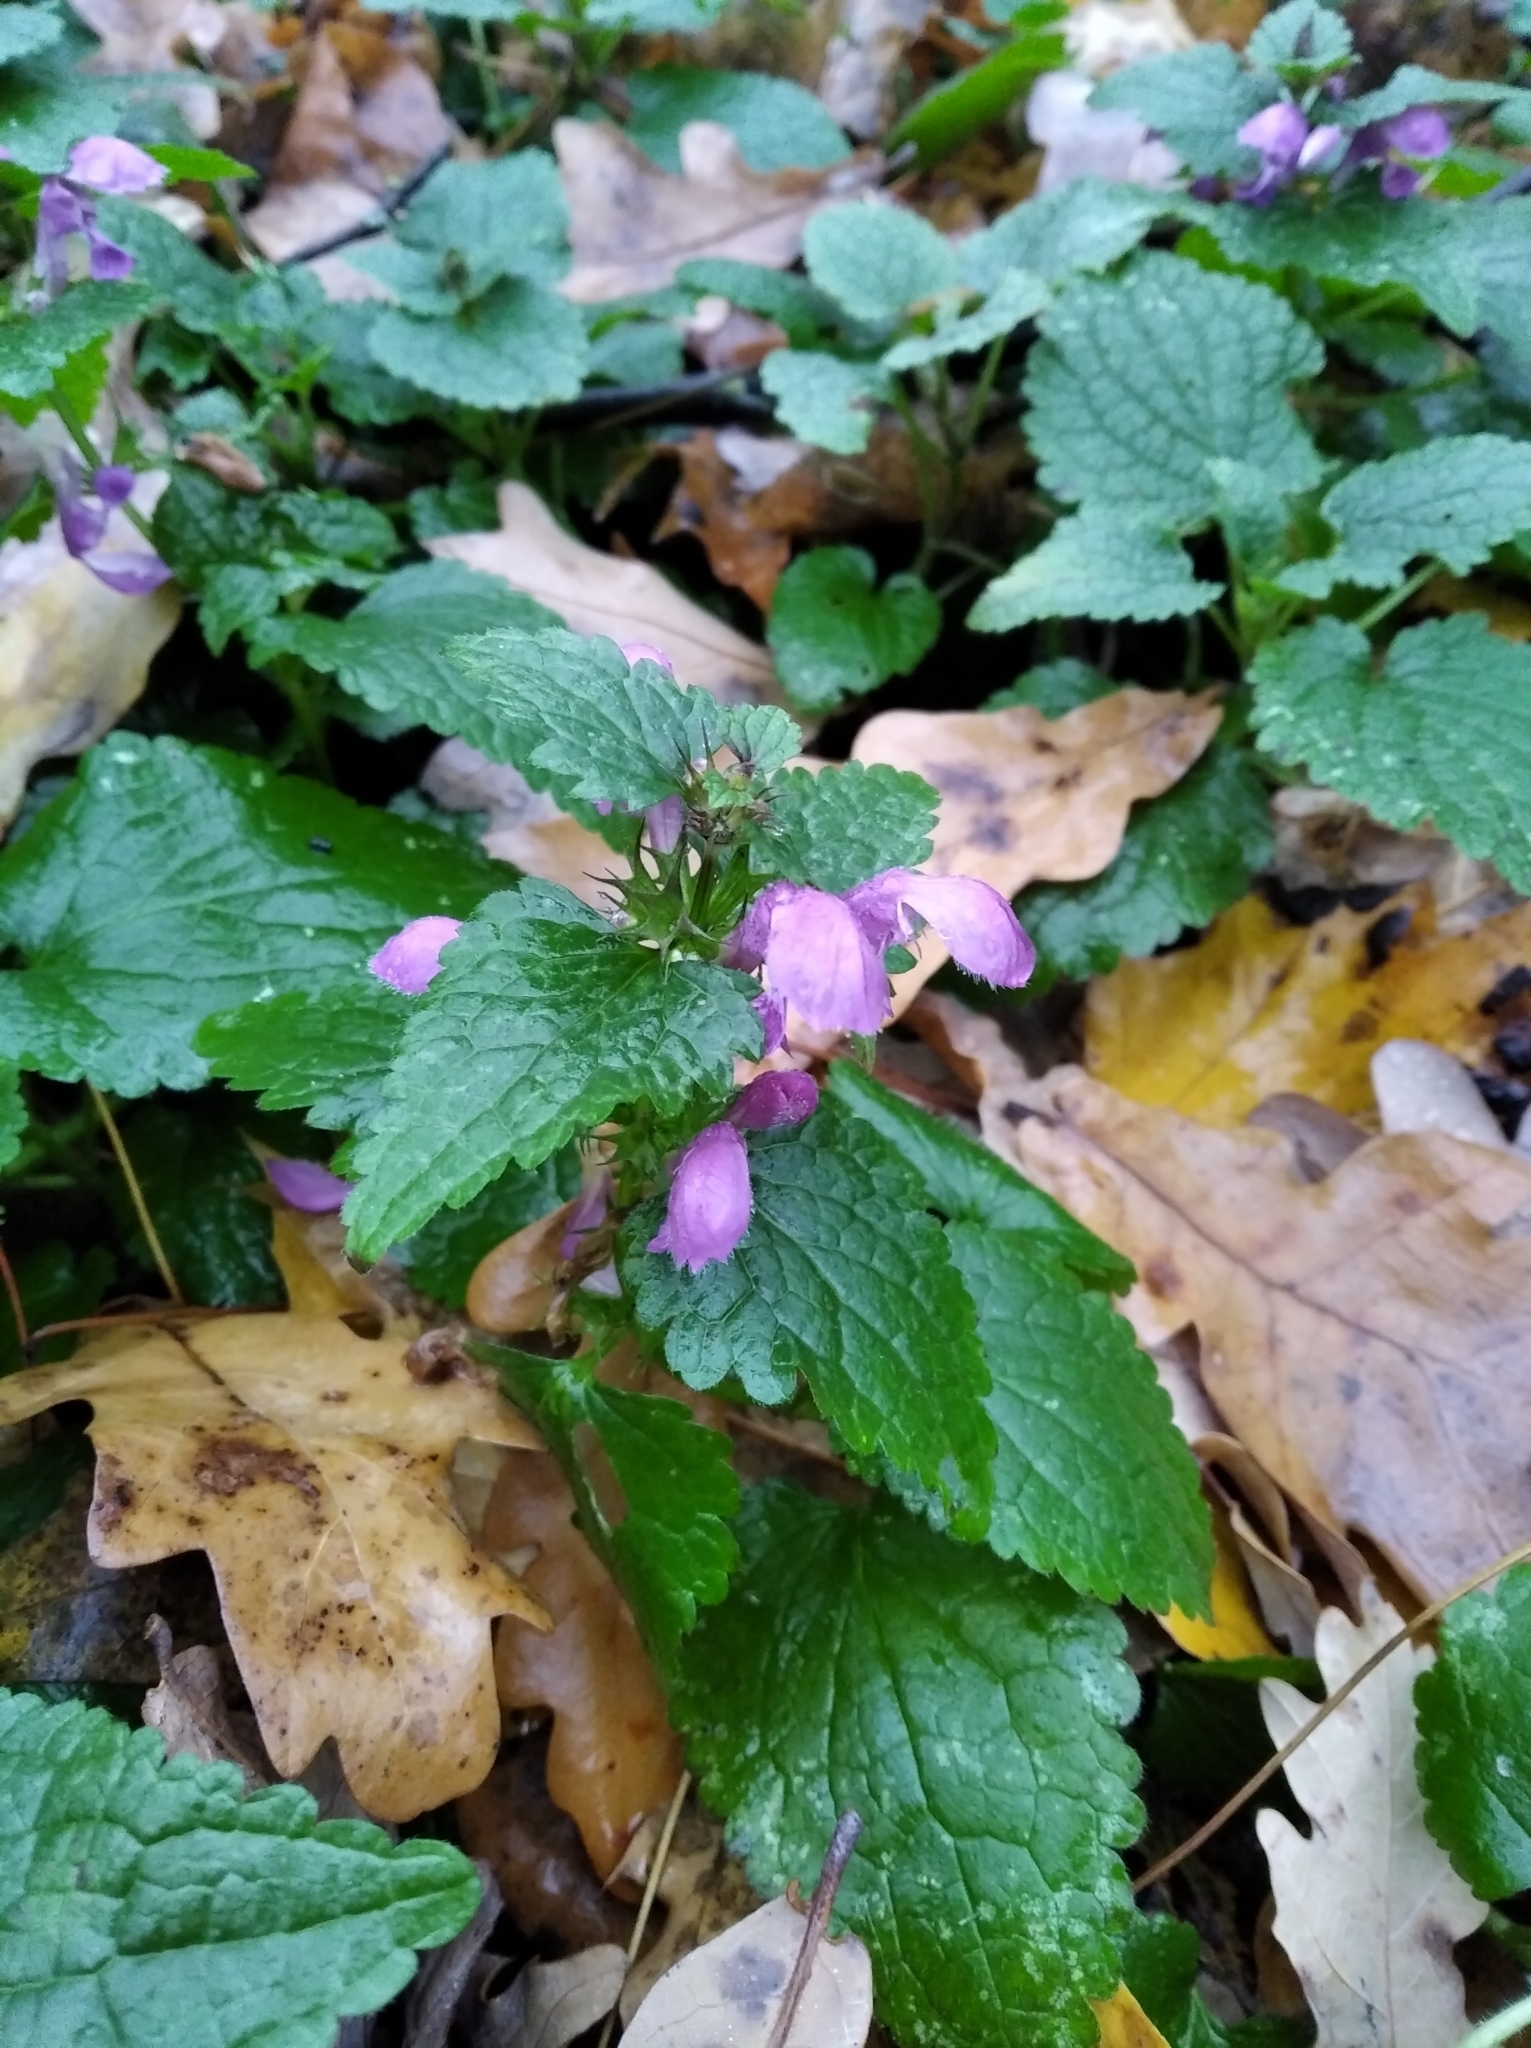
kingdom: Plantae
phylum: Tracheophyta
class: Magnoliopsida
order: Lamiales
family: Lamiaceae
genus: Lamium
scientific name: Lamium maculatum
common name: Spotted dead-nettle
